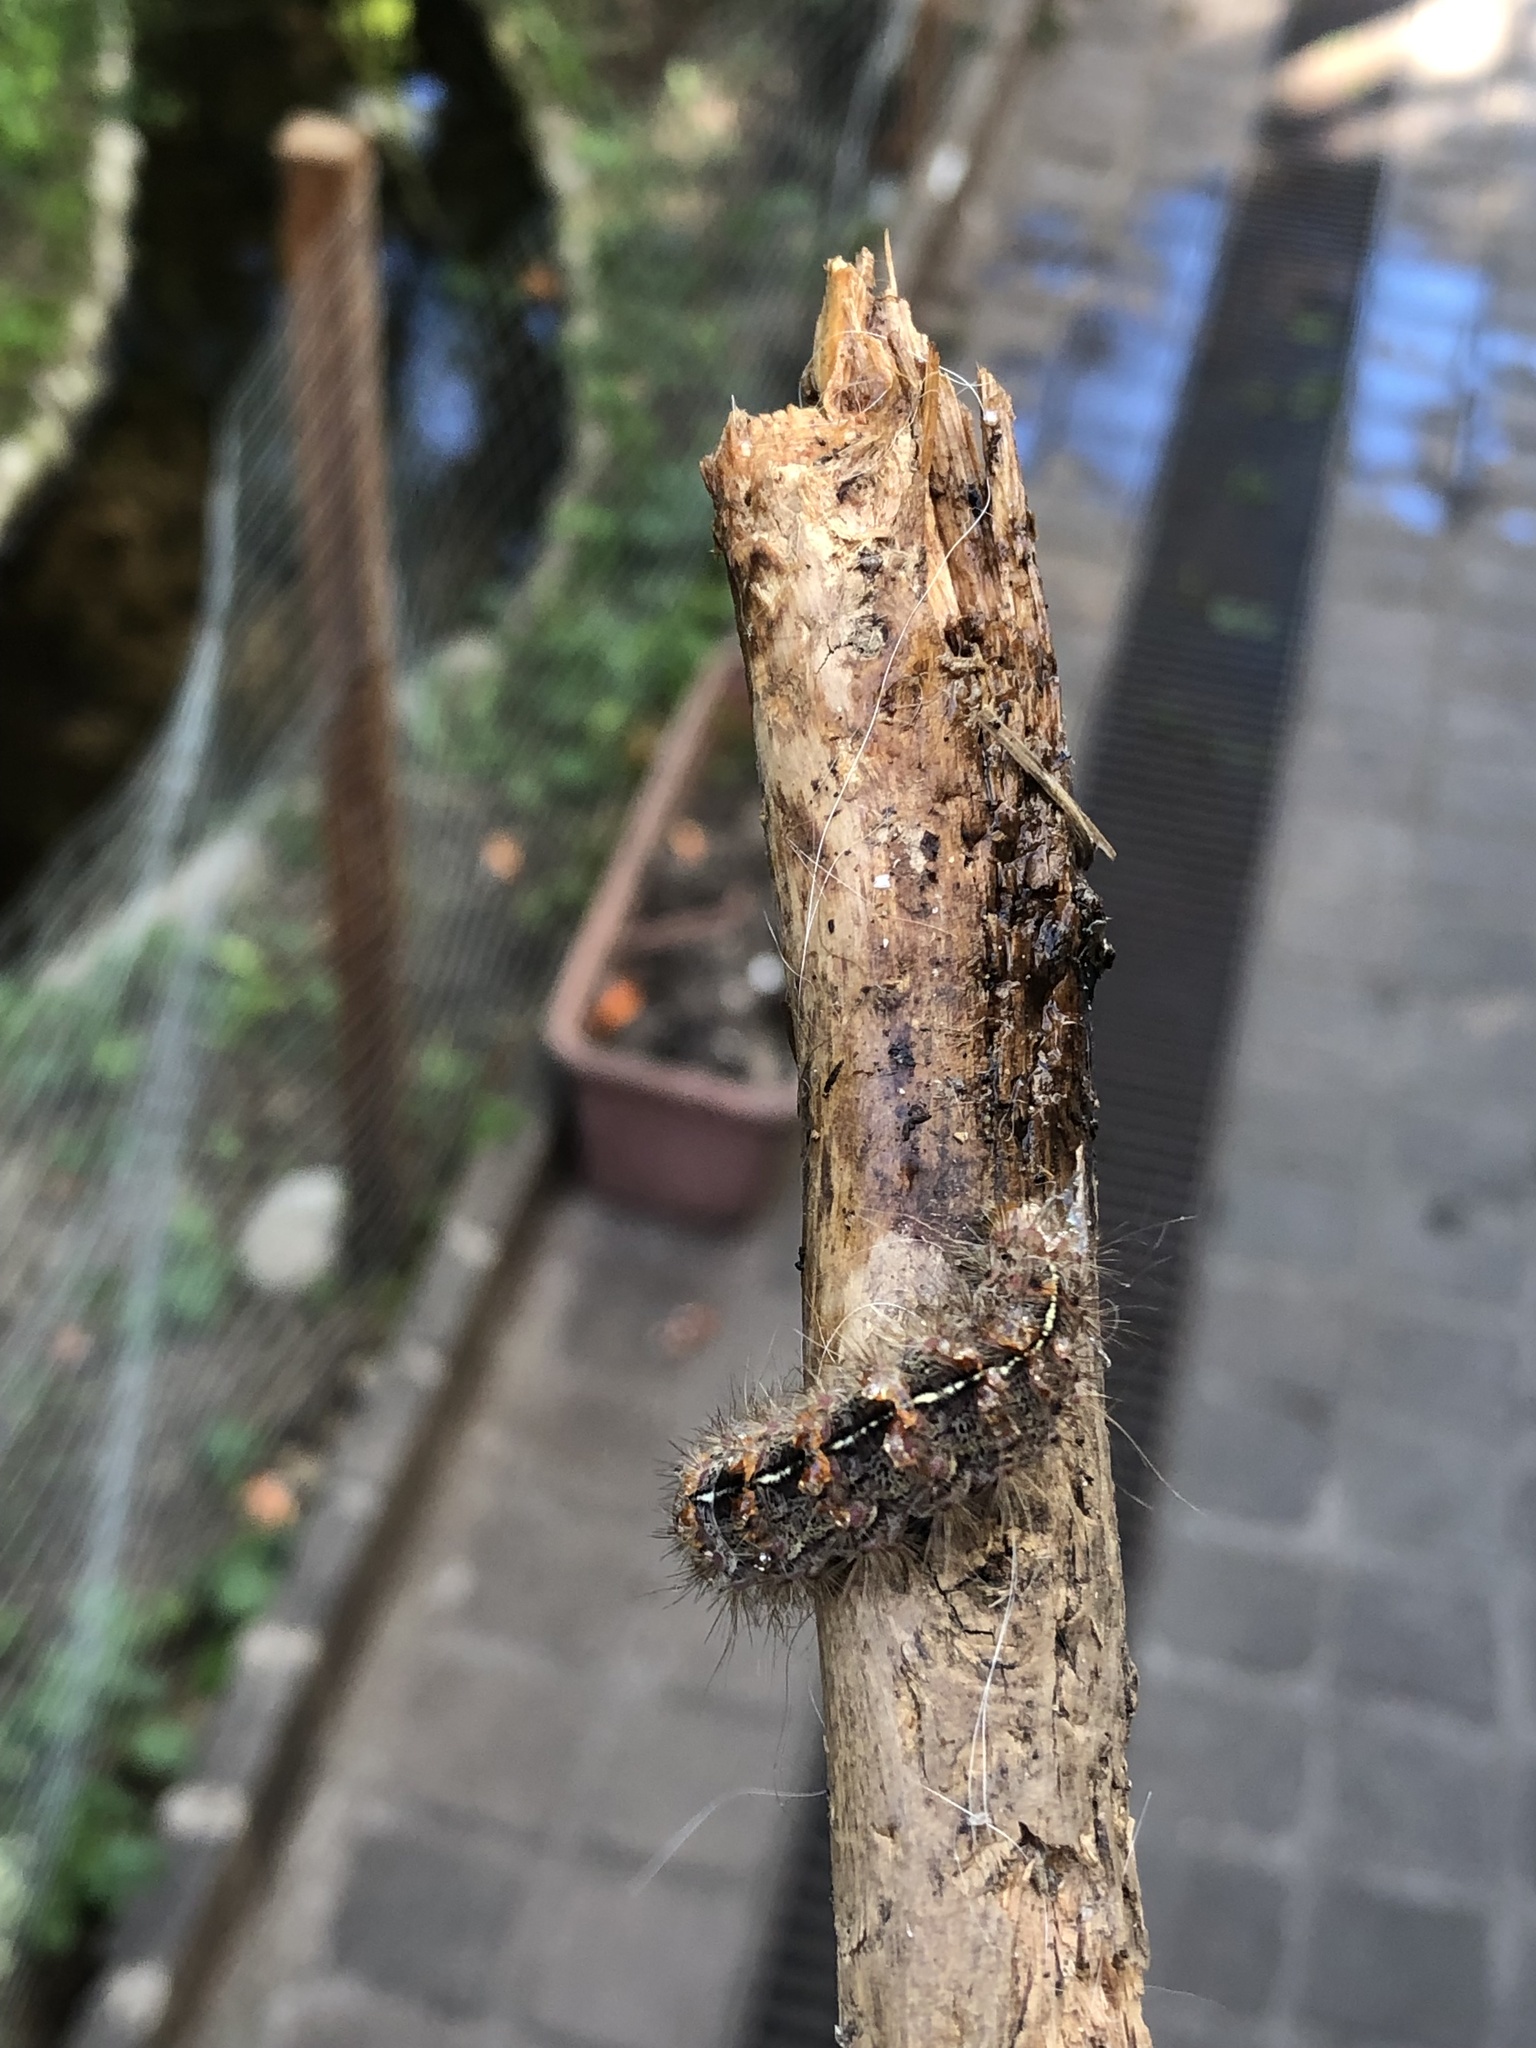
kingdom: Animalia
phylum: Arthropoda
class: Insecta
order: Lepidoptera
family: Erebidae
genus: Paracles
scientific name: Paracles fusca
